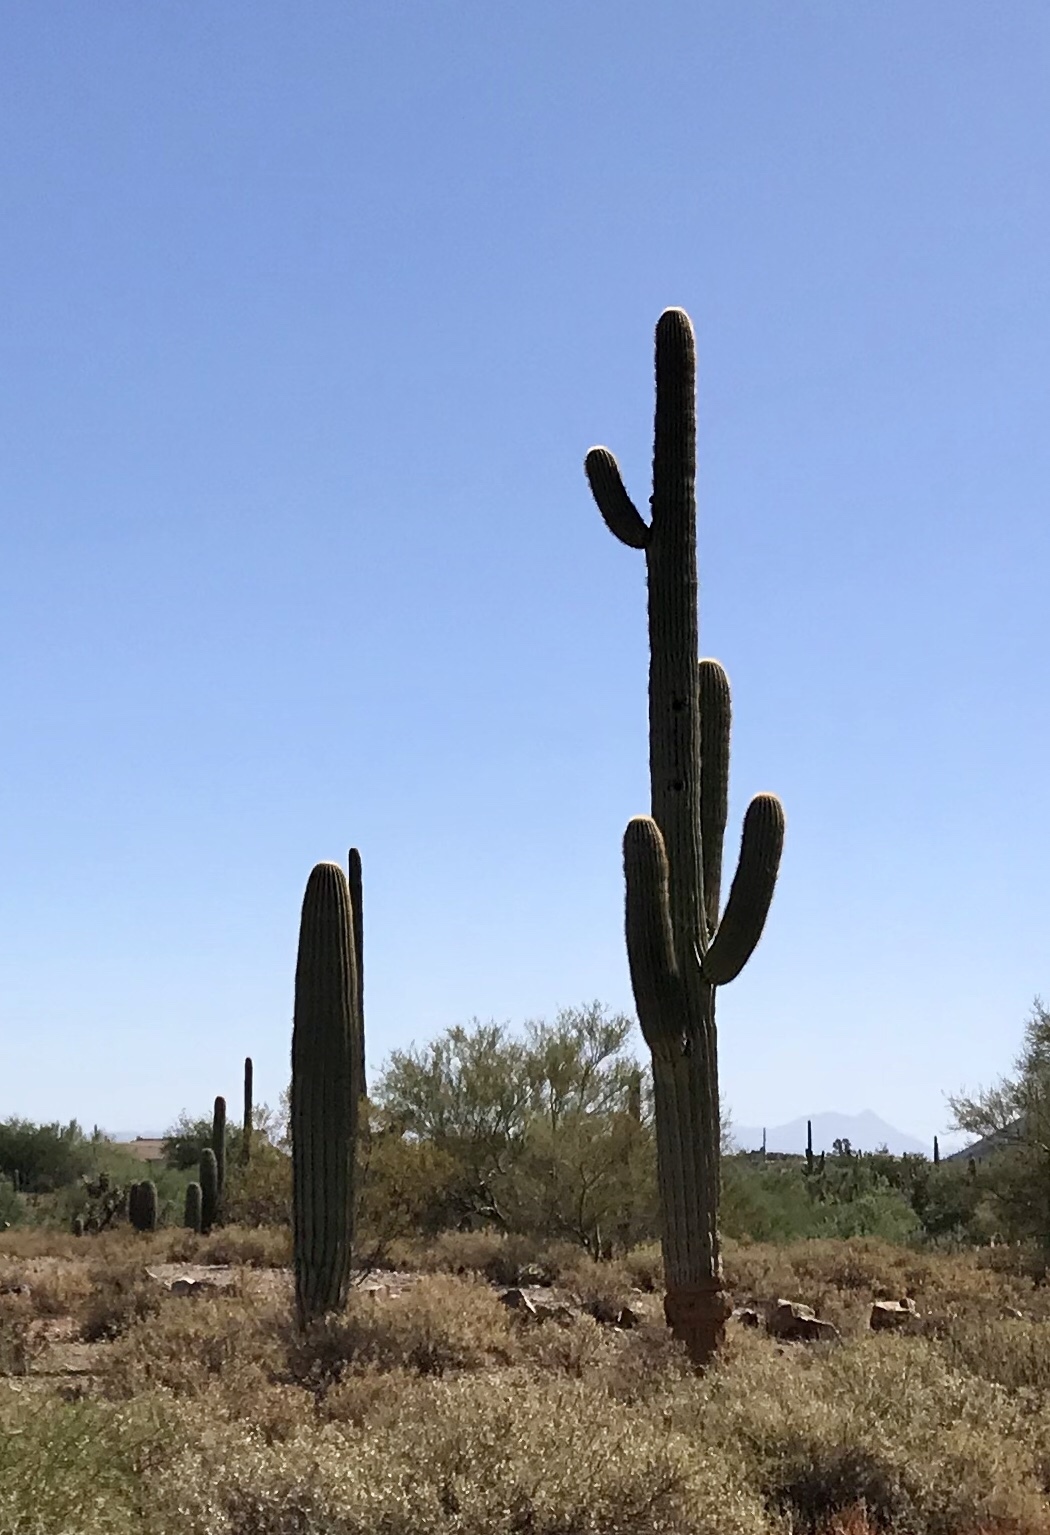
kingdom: Plantae
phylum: Tracheophyta
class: Magnoliopsida
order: Caryophyllales
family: Cactaceae
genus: Carnegiea
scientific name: Carnegiea gigantea
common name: Saguaro
